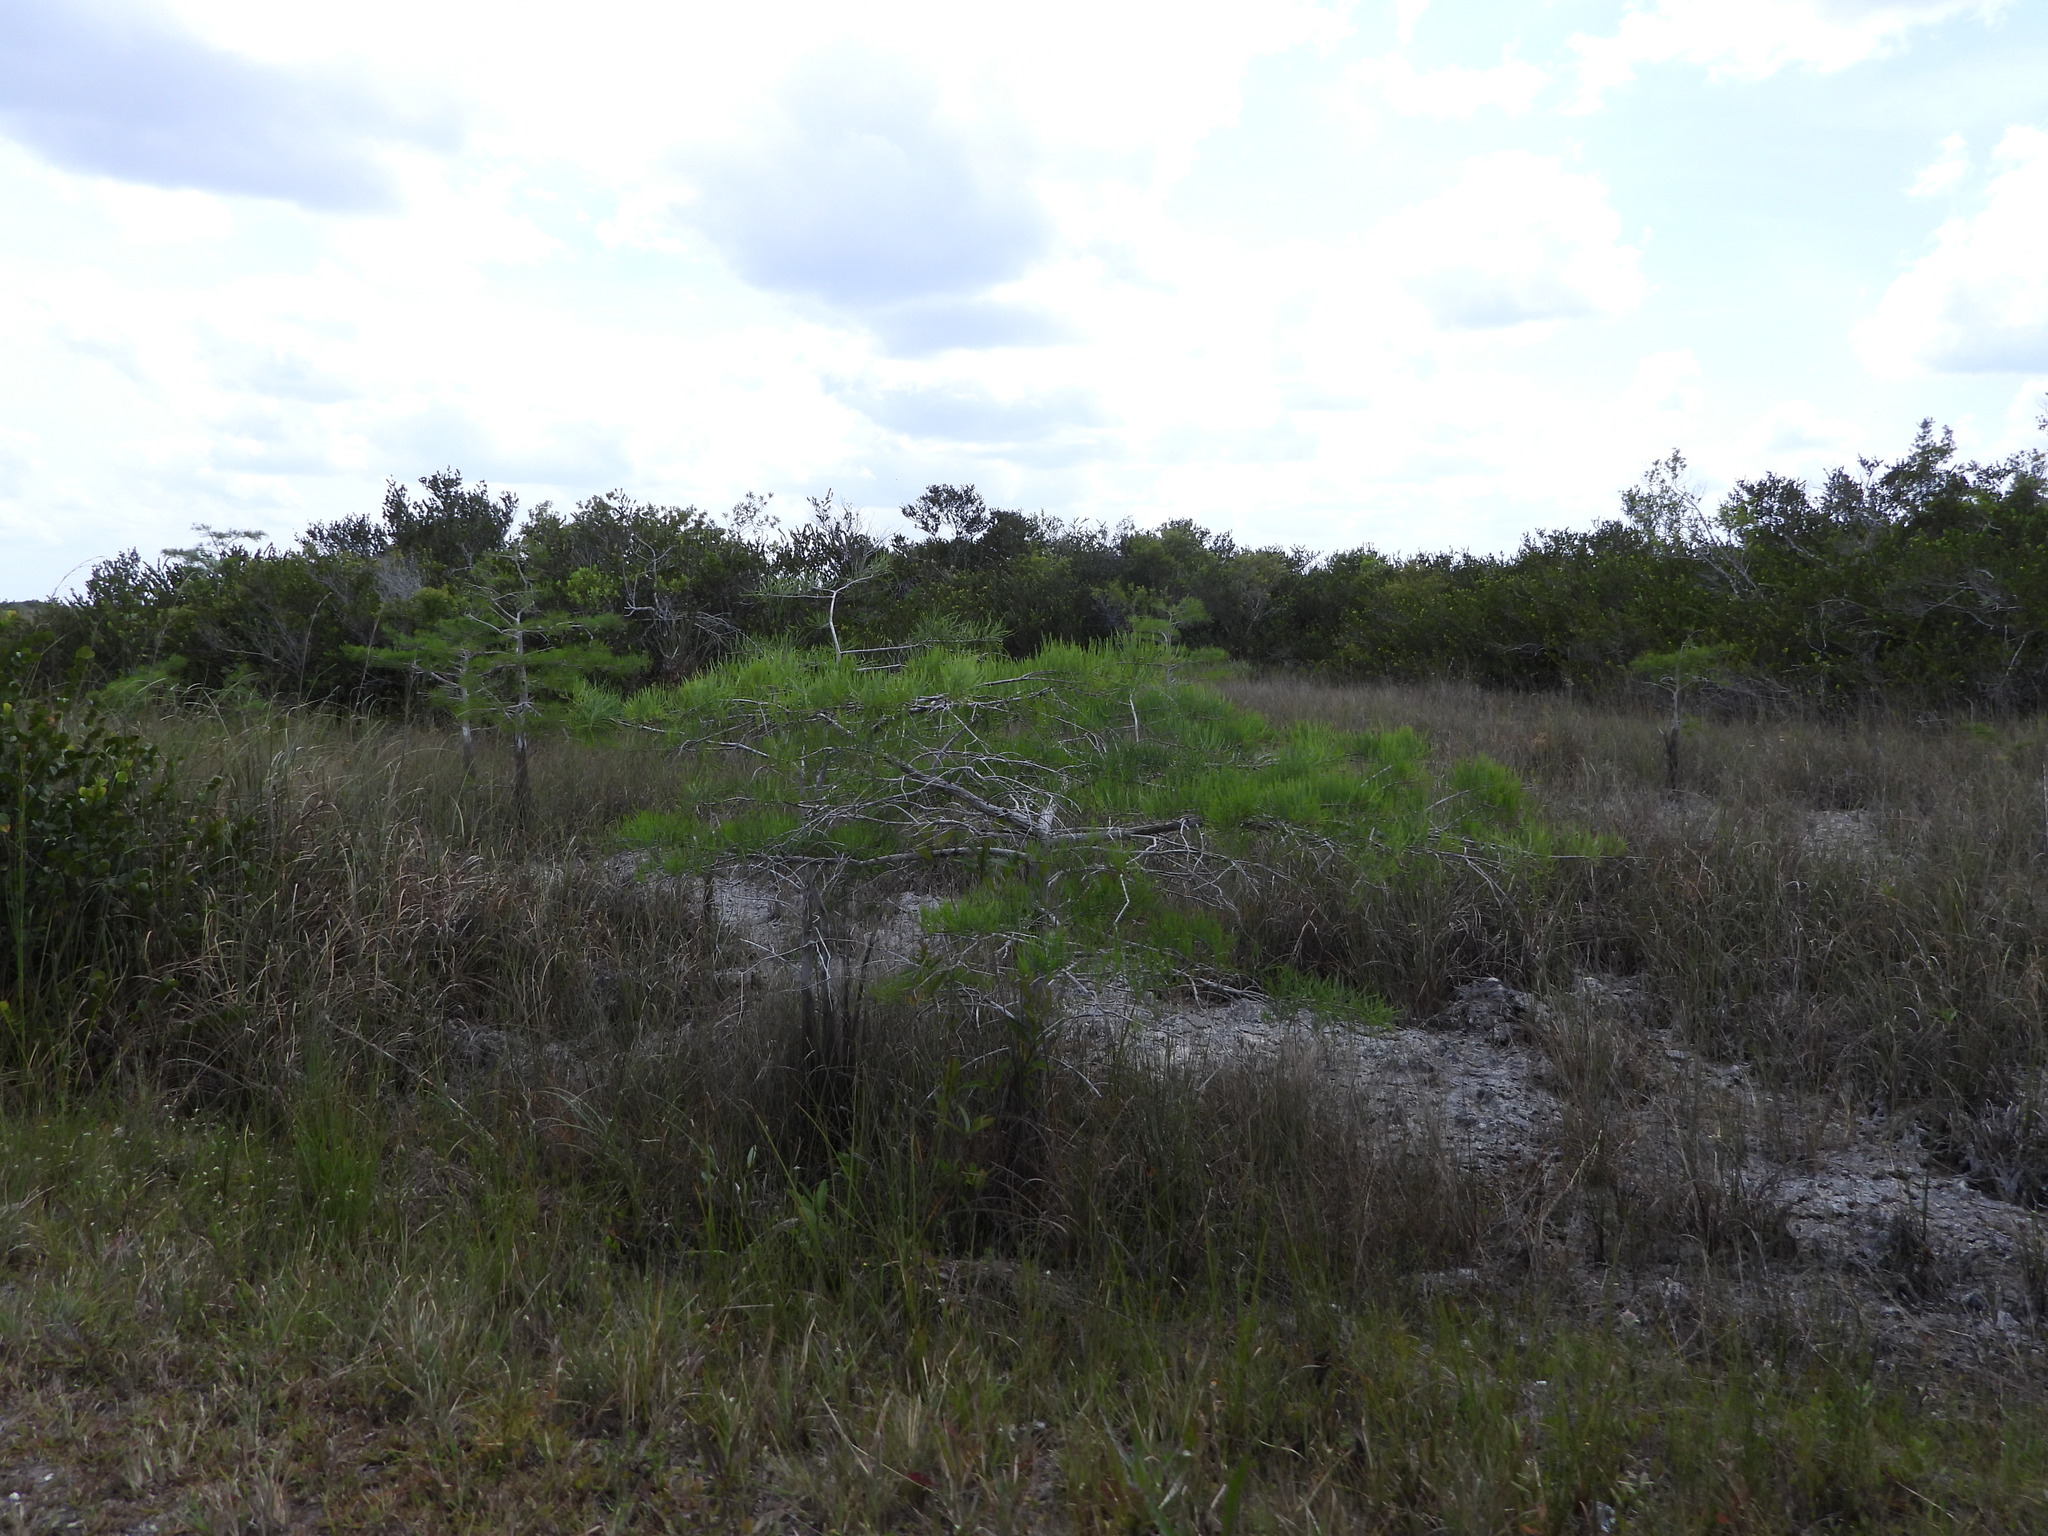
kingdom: Plantae
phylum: Tracheophyta
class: Pinopsida
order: Pinales
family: Cupressaceae
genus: Taxodium
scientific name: Taxodium distichum
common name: Bald cypress
